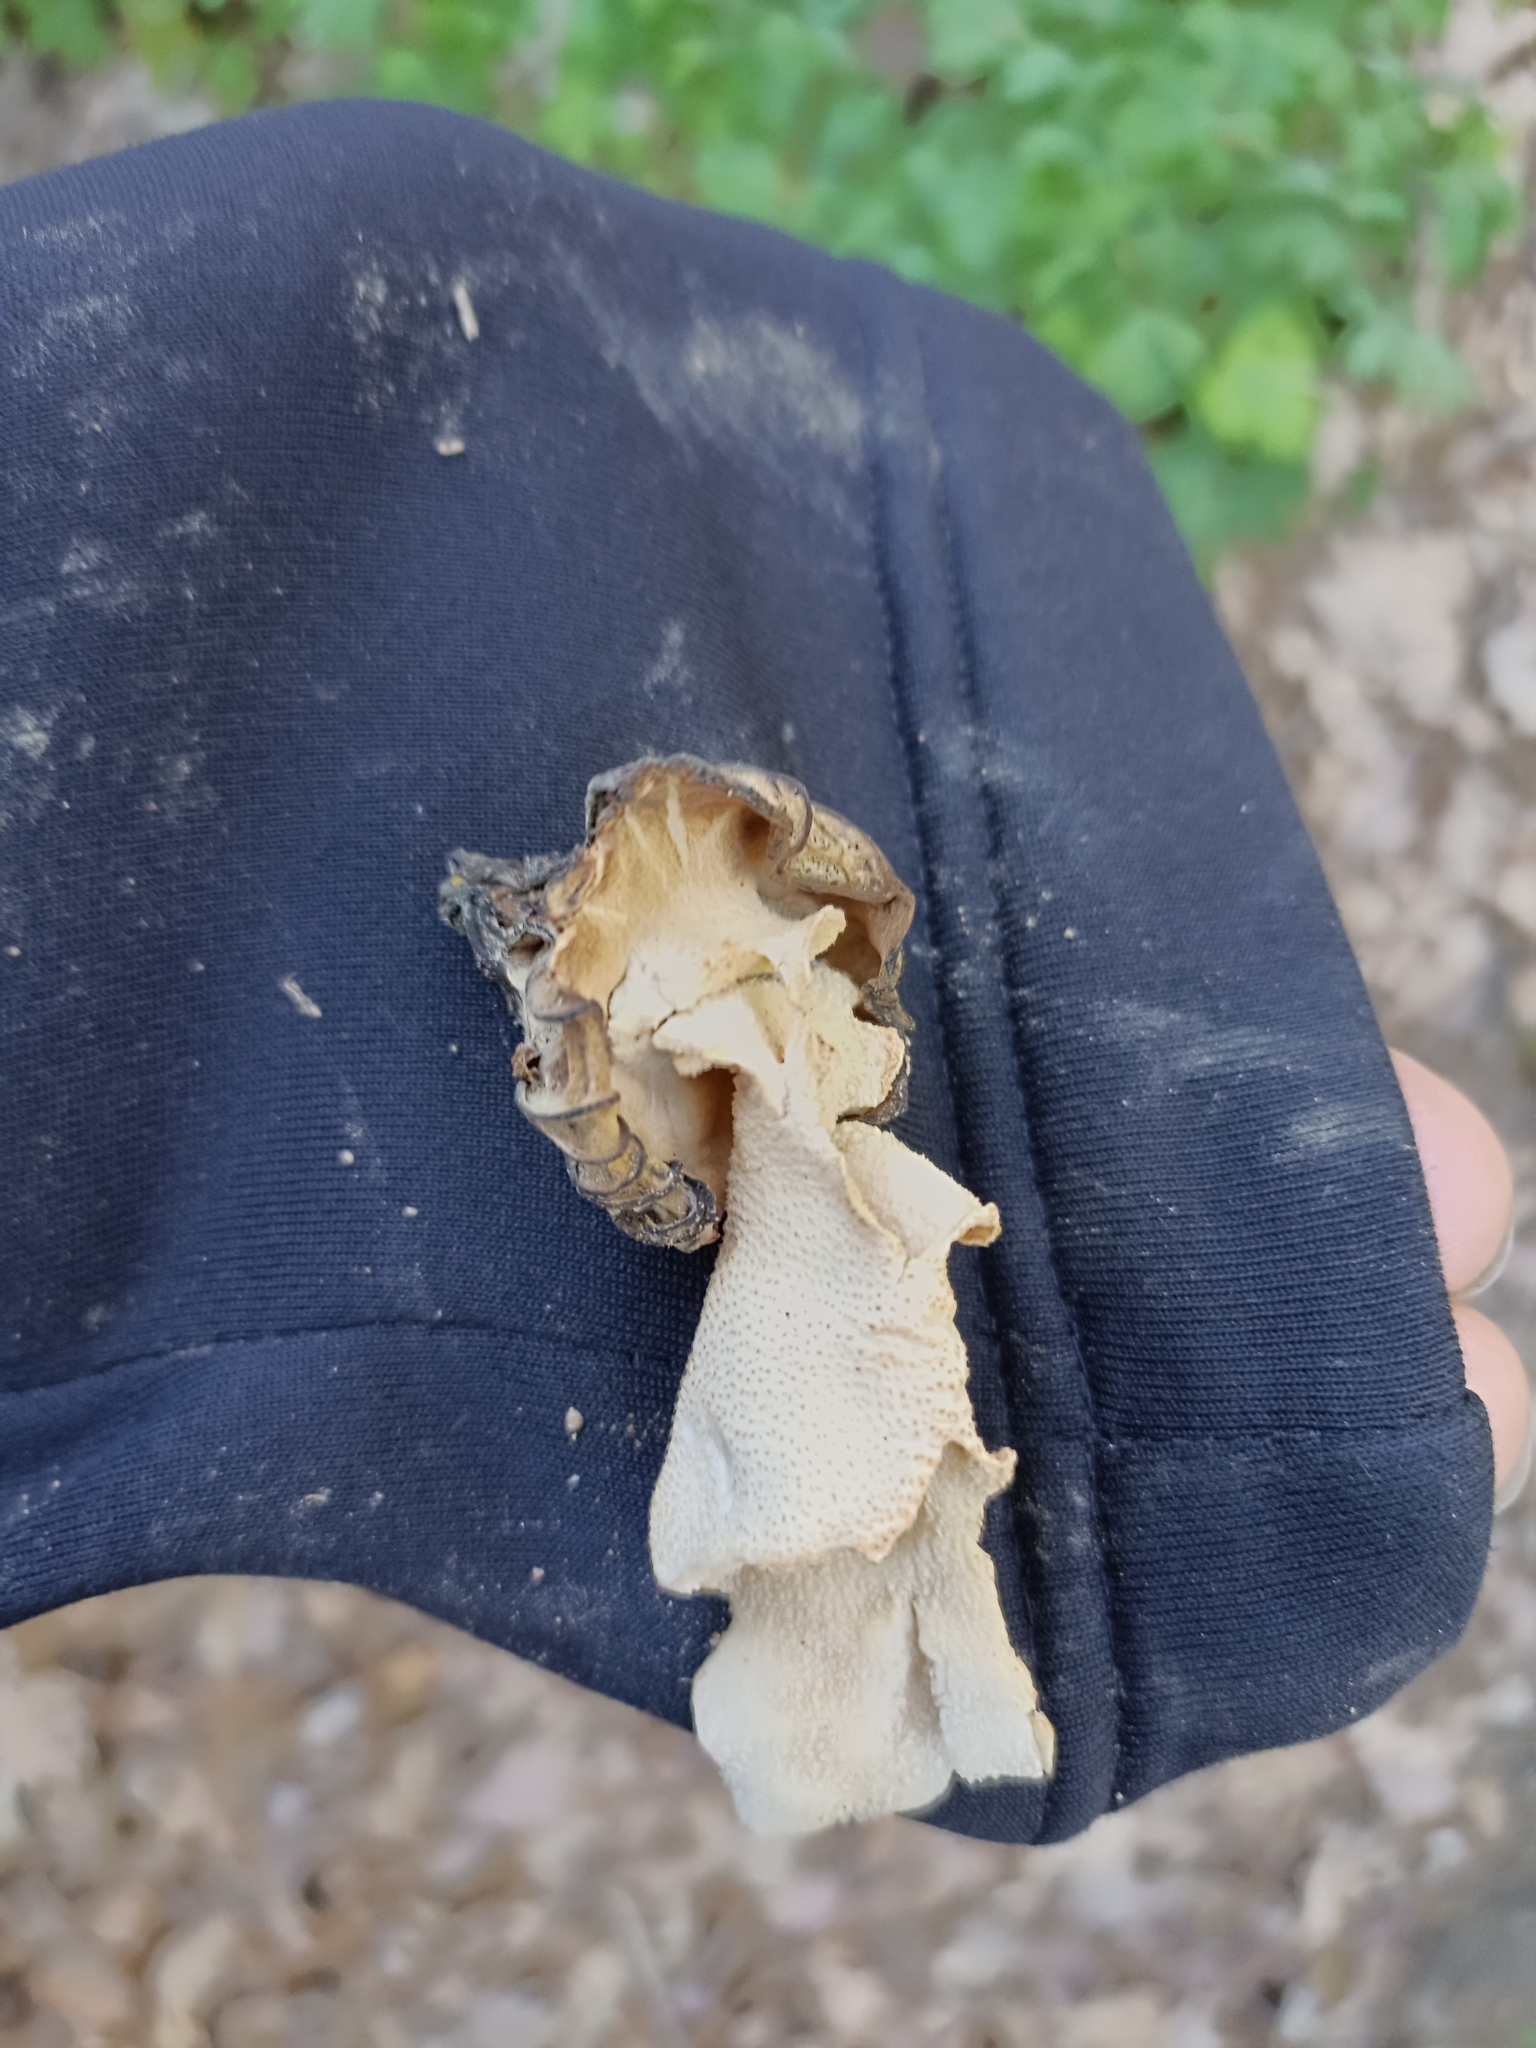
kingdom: Fungi
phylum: Ascomycota
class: Pezizomycetes
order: Pezizales
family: Morchellaceae
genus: Morchella
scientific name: Morchella semilibera
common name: Semifree morel
